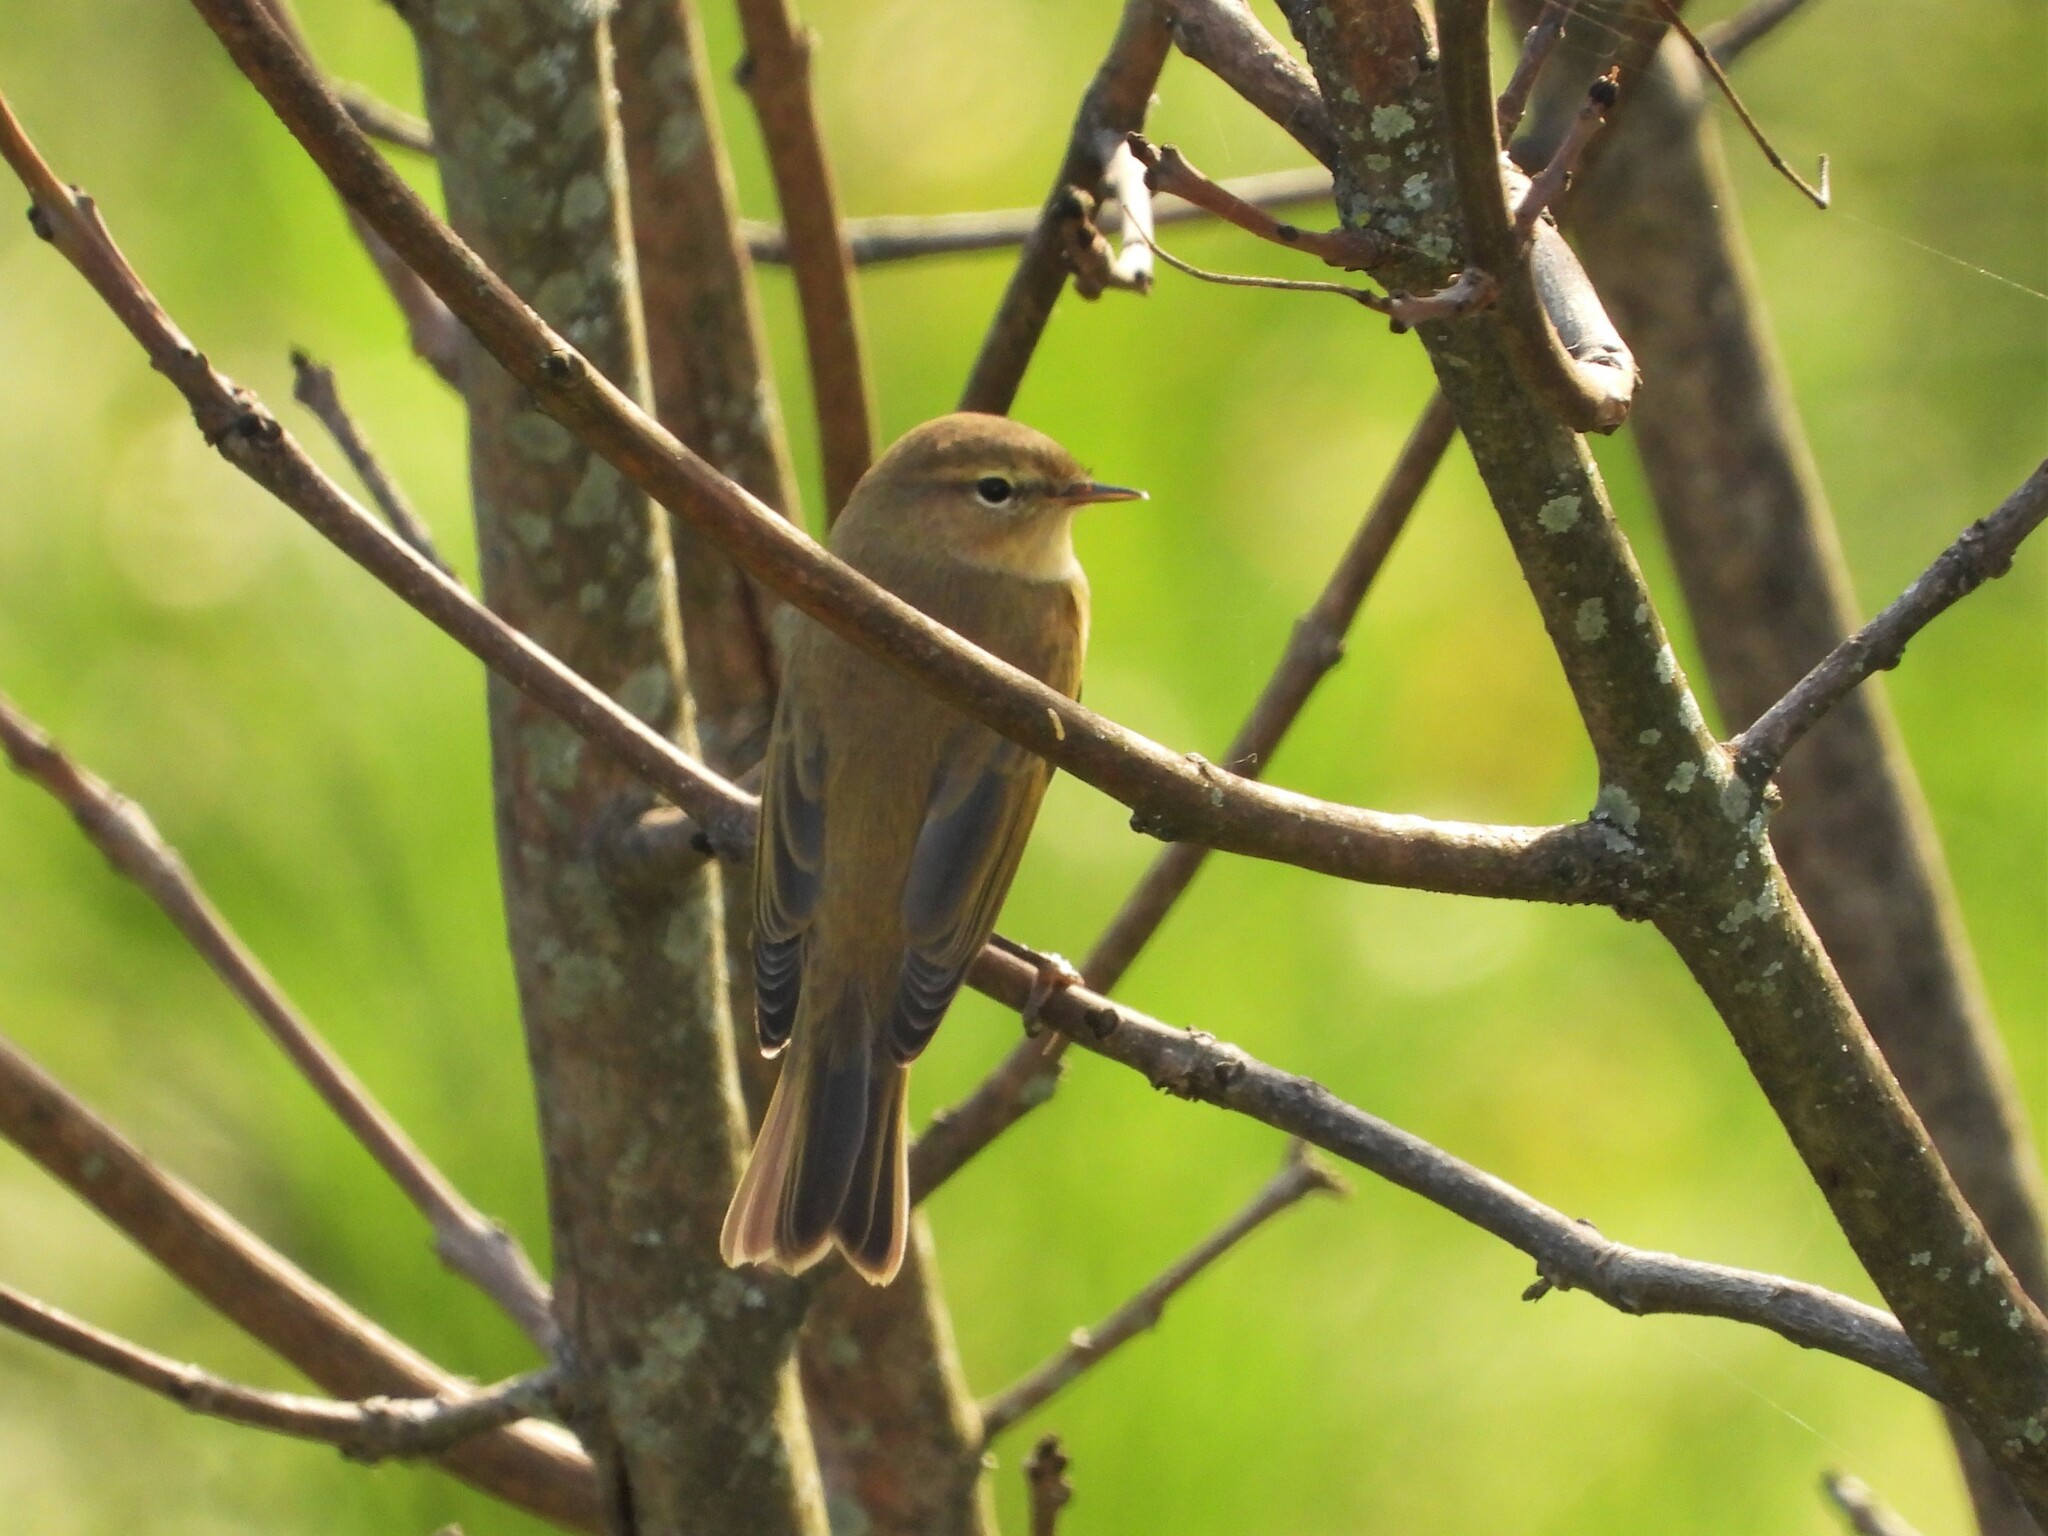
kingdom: Animalia
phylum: Chordata
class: Aves
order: Passeriformes
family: Phylloscopidae
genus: Phylloscopus
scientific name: Phylloscopus collybita
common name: Common chiffchaff
